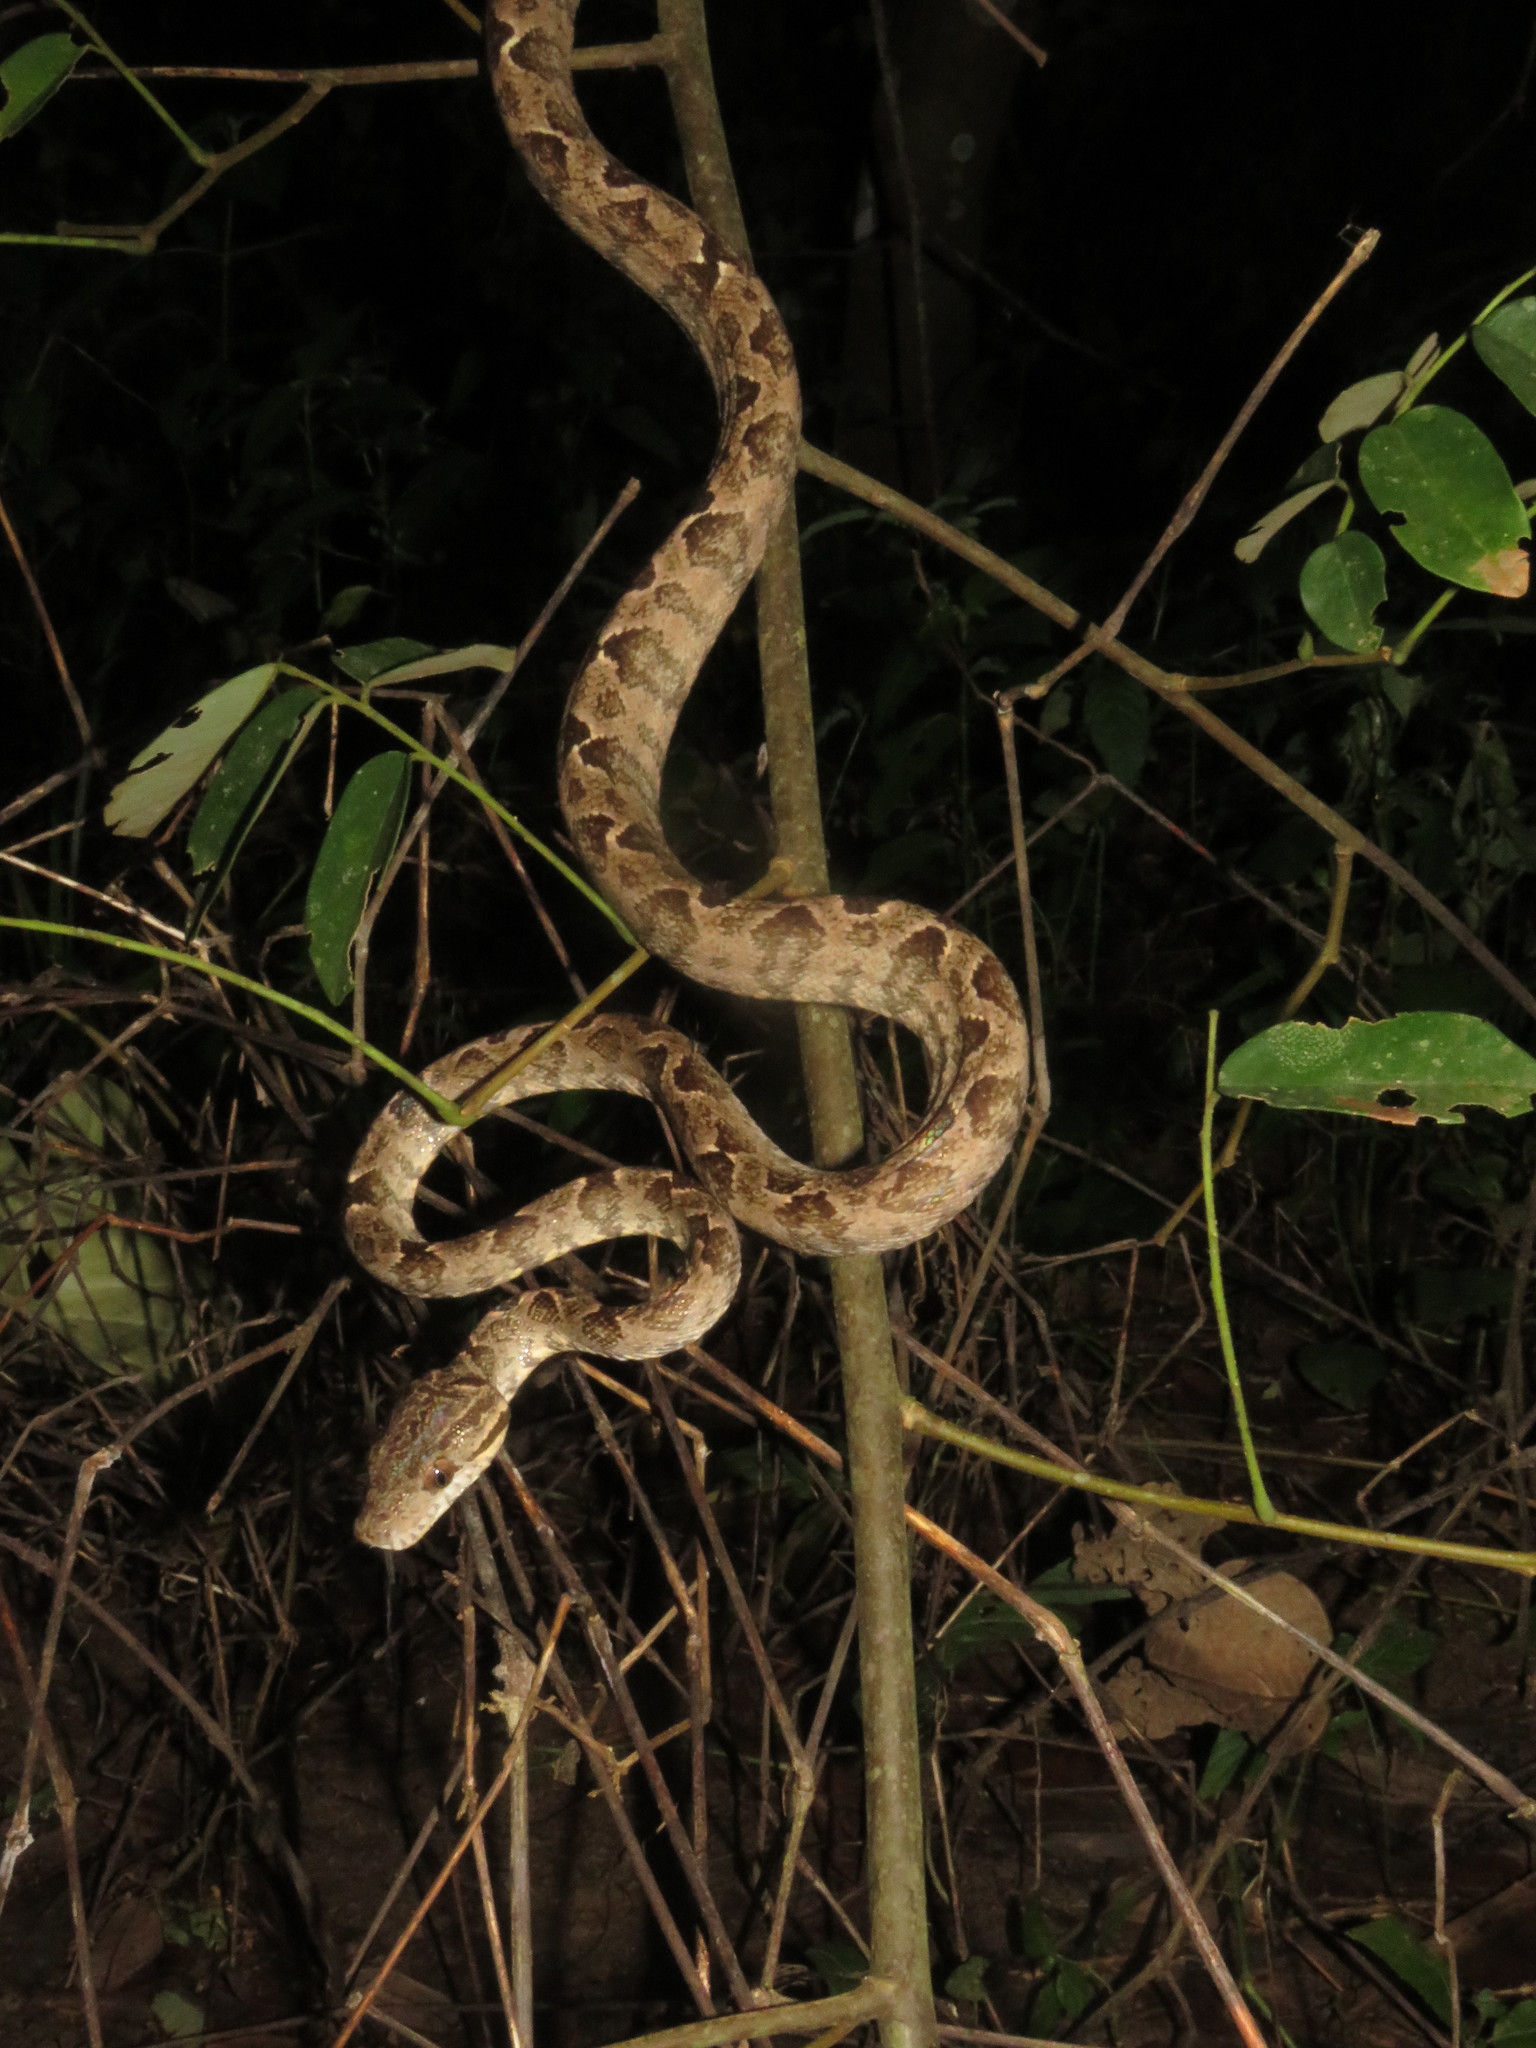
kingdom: Animalia
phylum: Chordata
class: Squamata
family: Boidae
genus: Corallus
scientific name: Corallus hortulana
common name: Garden tree boa
